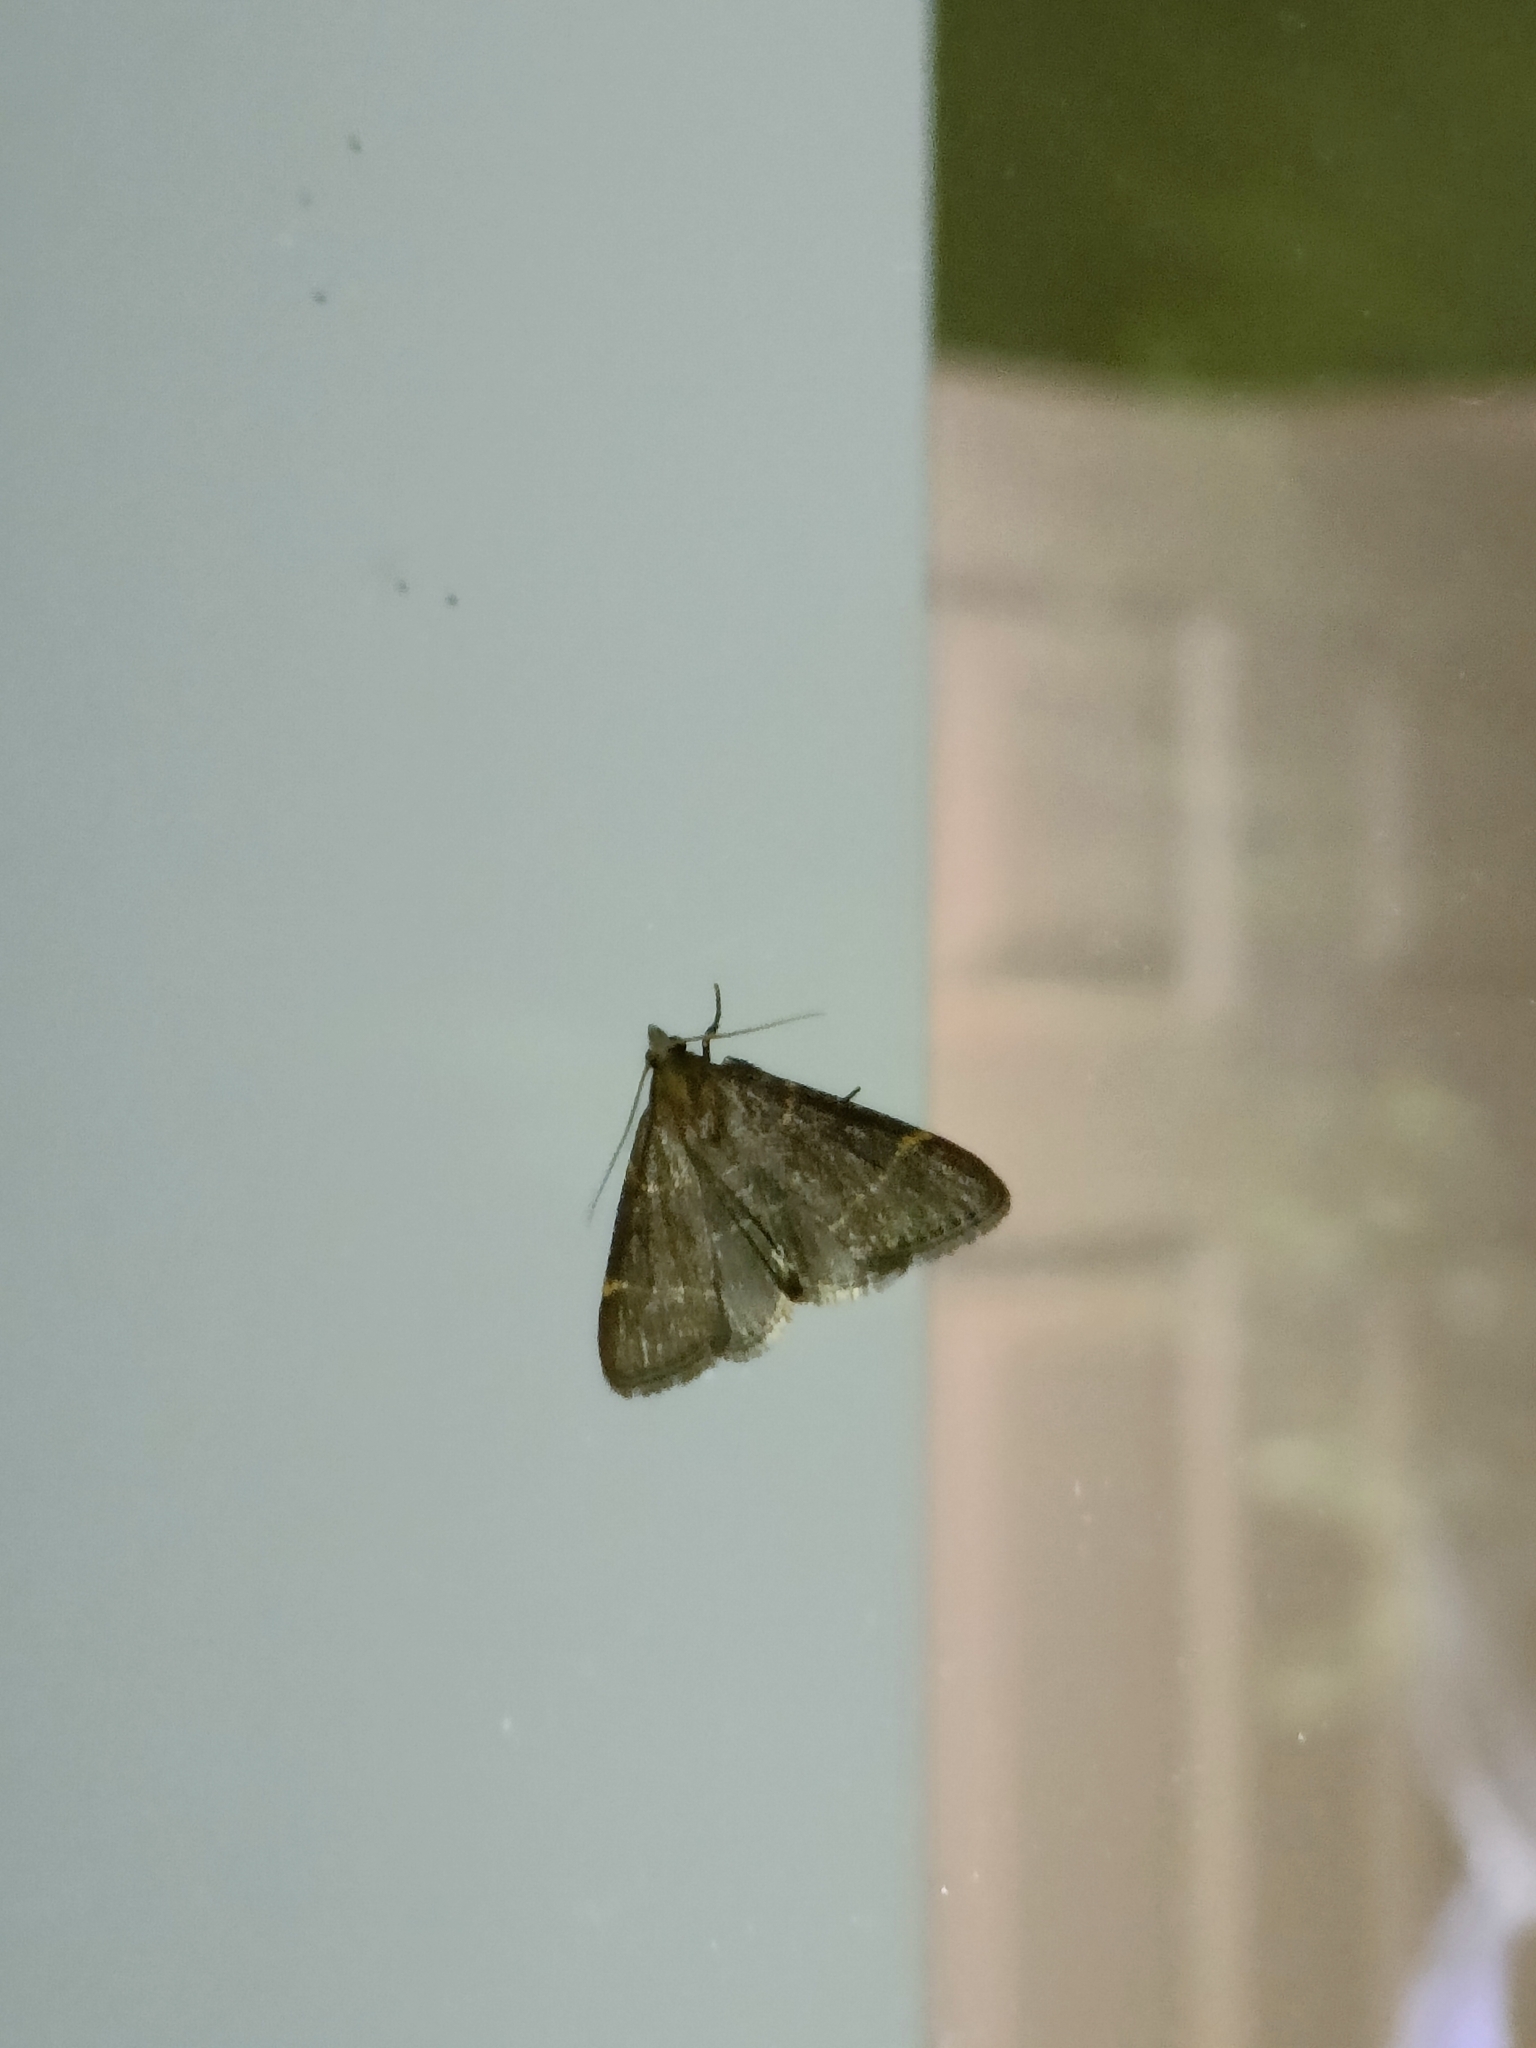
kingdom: Animalia
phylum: Arthropoda
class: Insecta
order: Lepidoptera
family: Pyralidae
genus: Hypsopygia
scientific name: Hypsopygia glaucinalis
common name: Double-striped tabby
